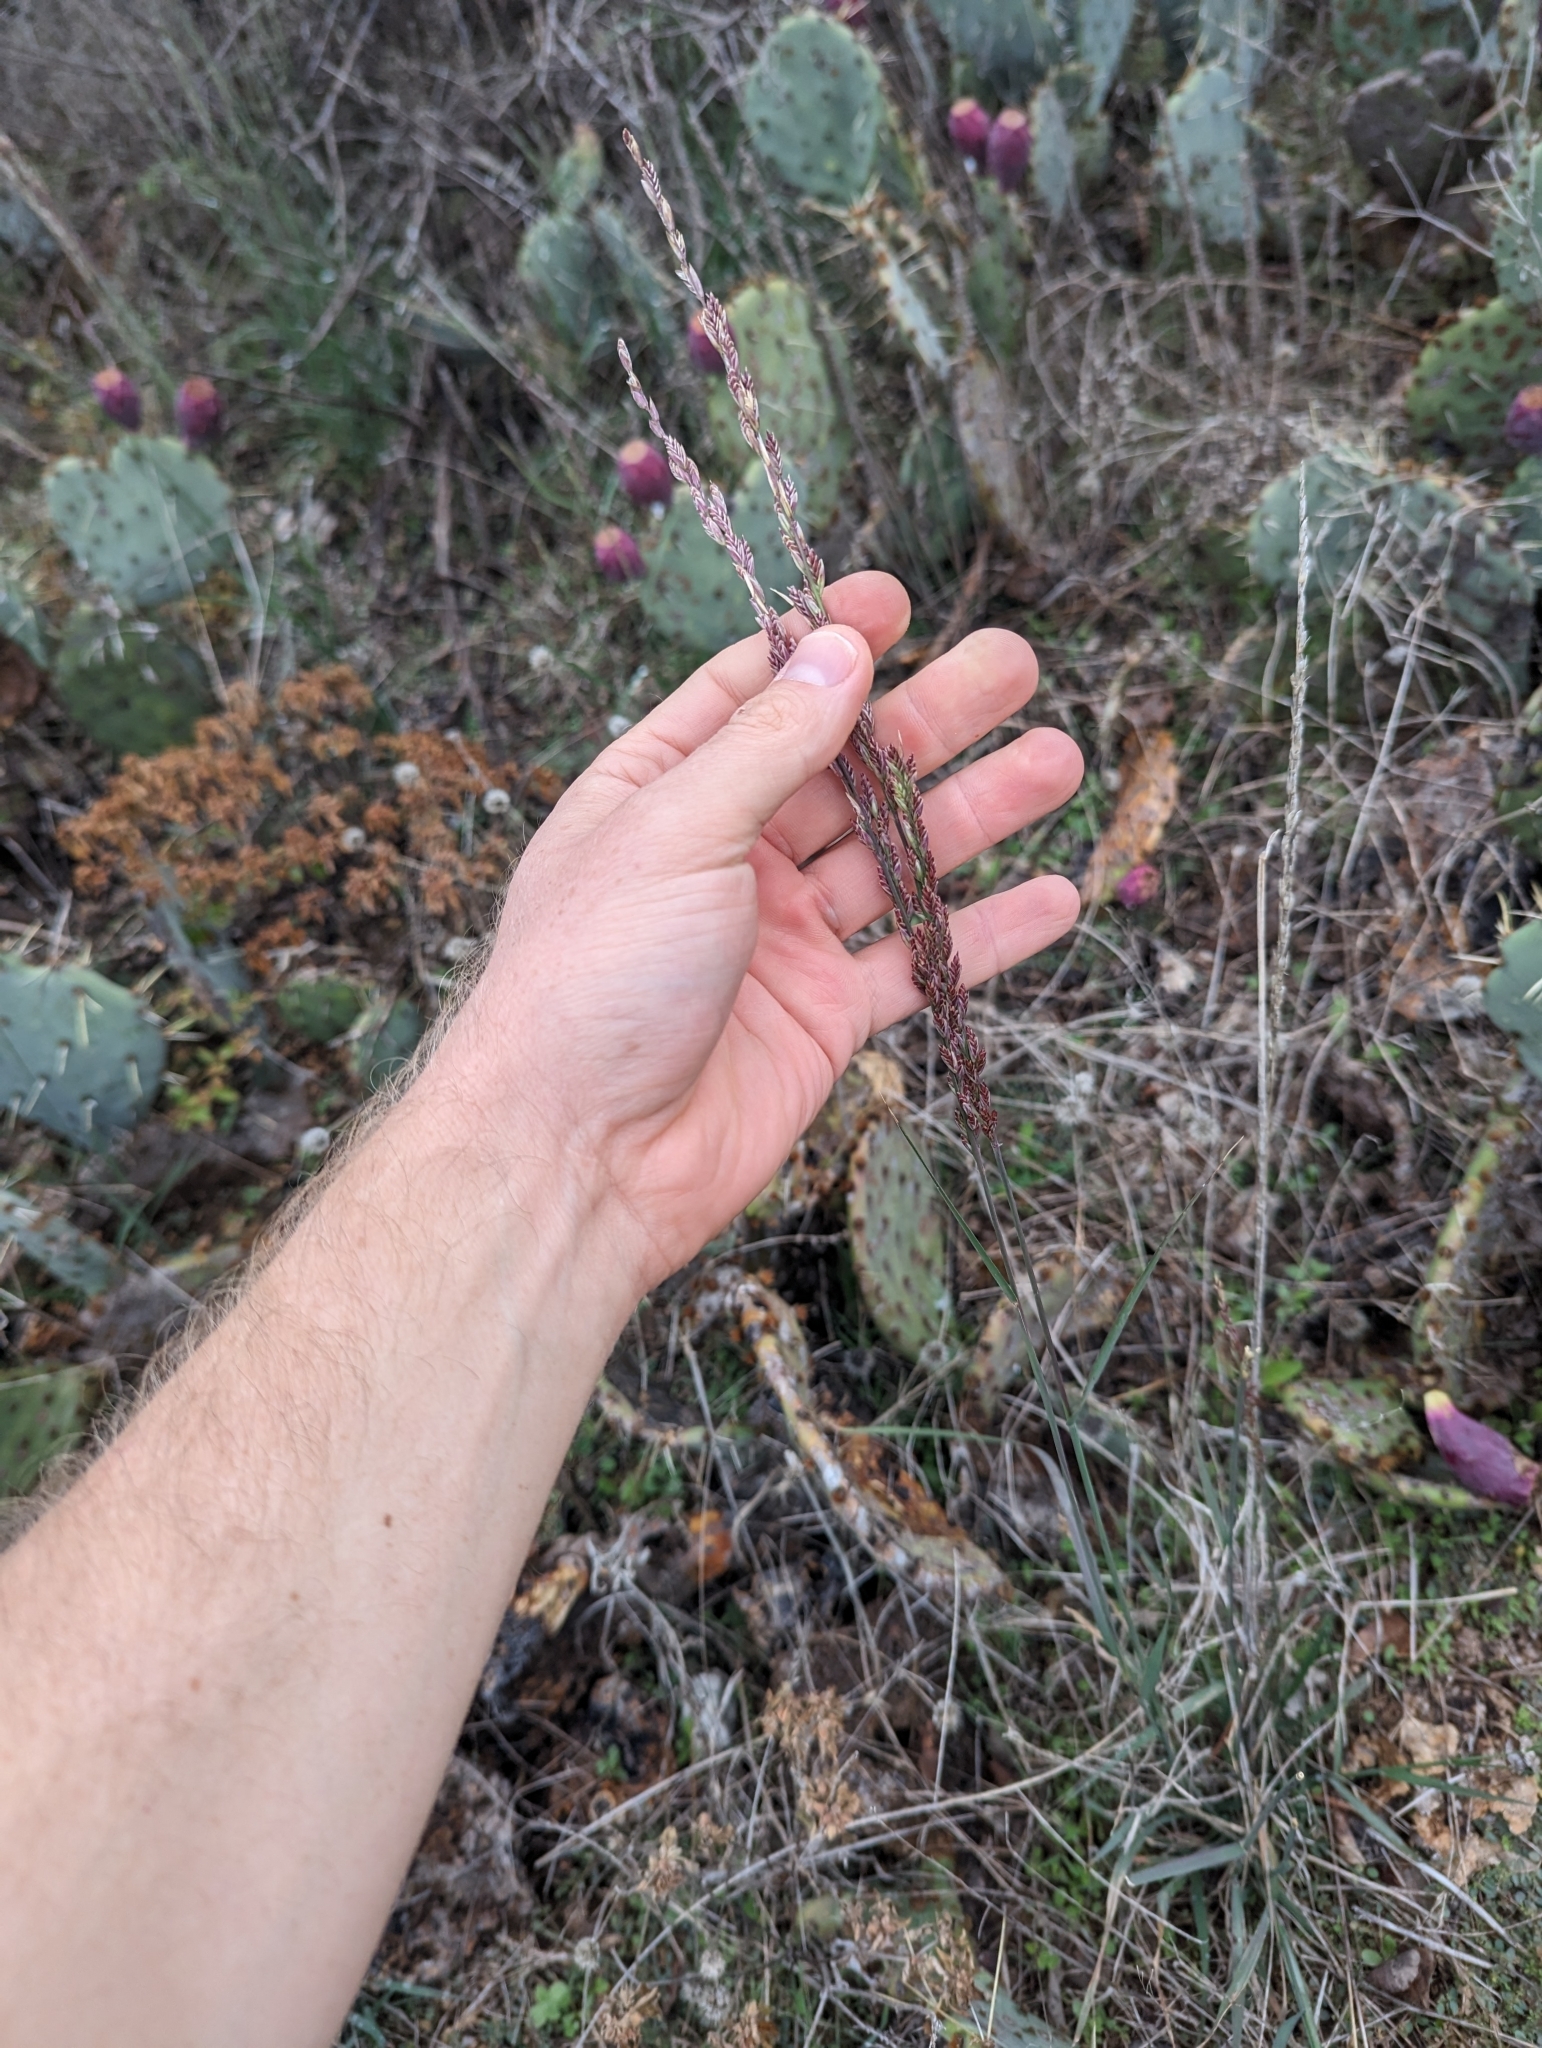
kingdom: Plantae
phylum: Tracheophyta
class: Liliopsida
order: Poales
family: Poaceae
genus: Trisetopsis
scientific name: Trisetopsis elongata
